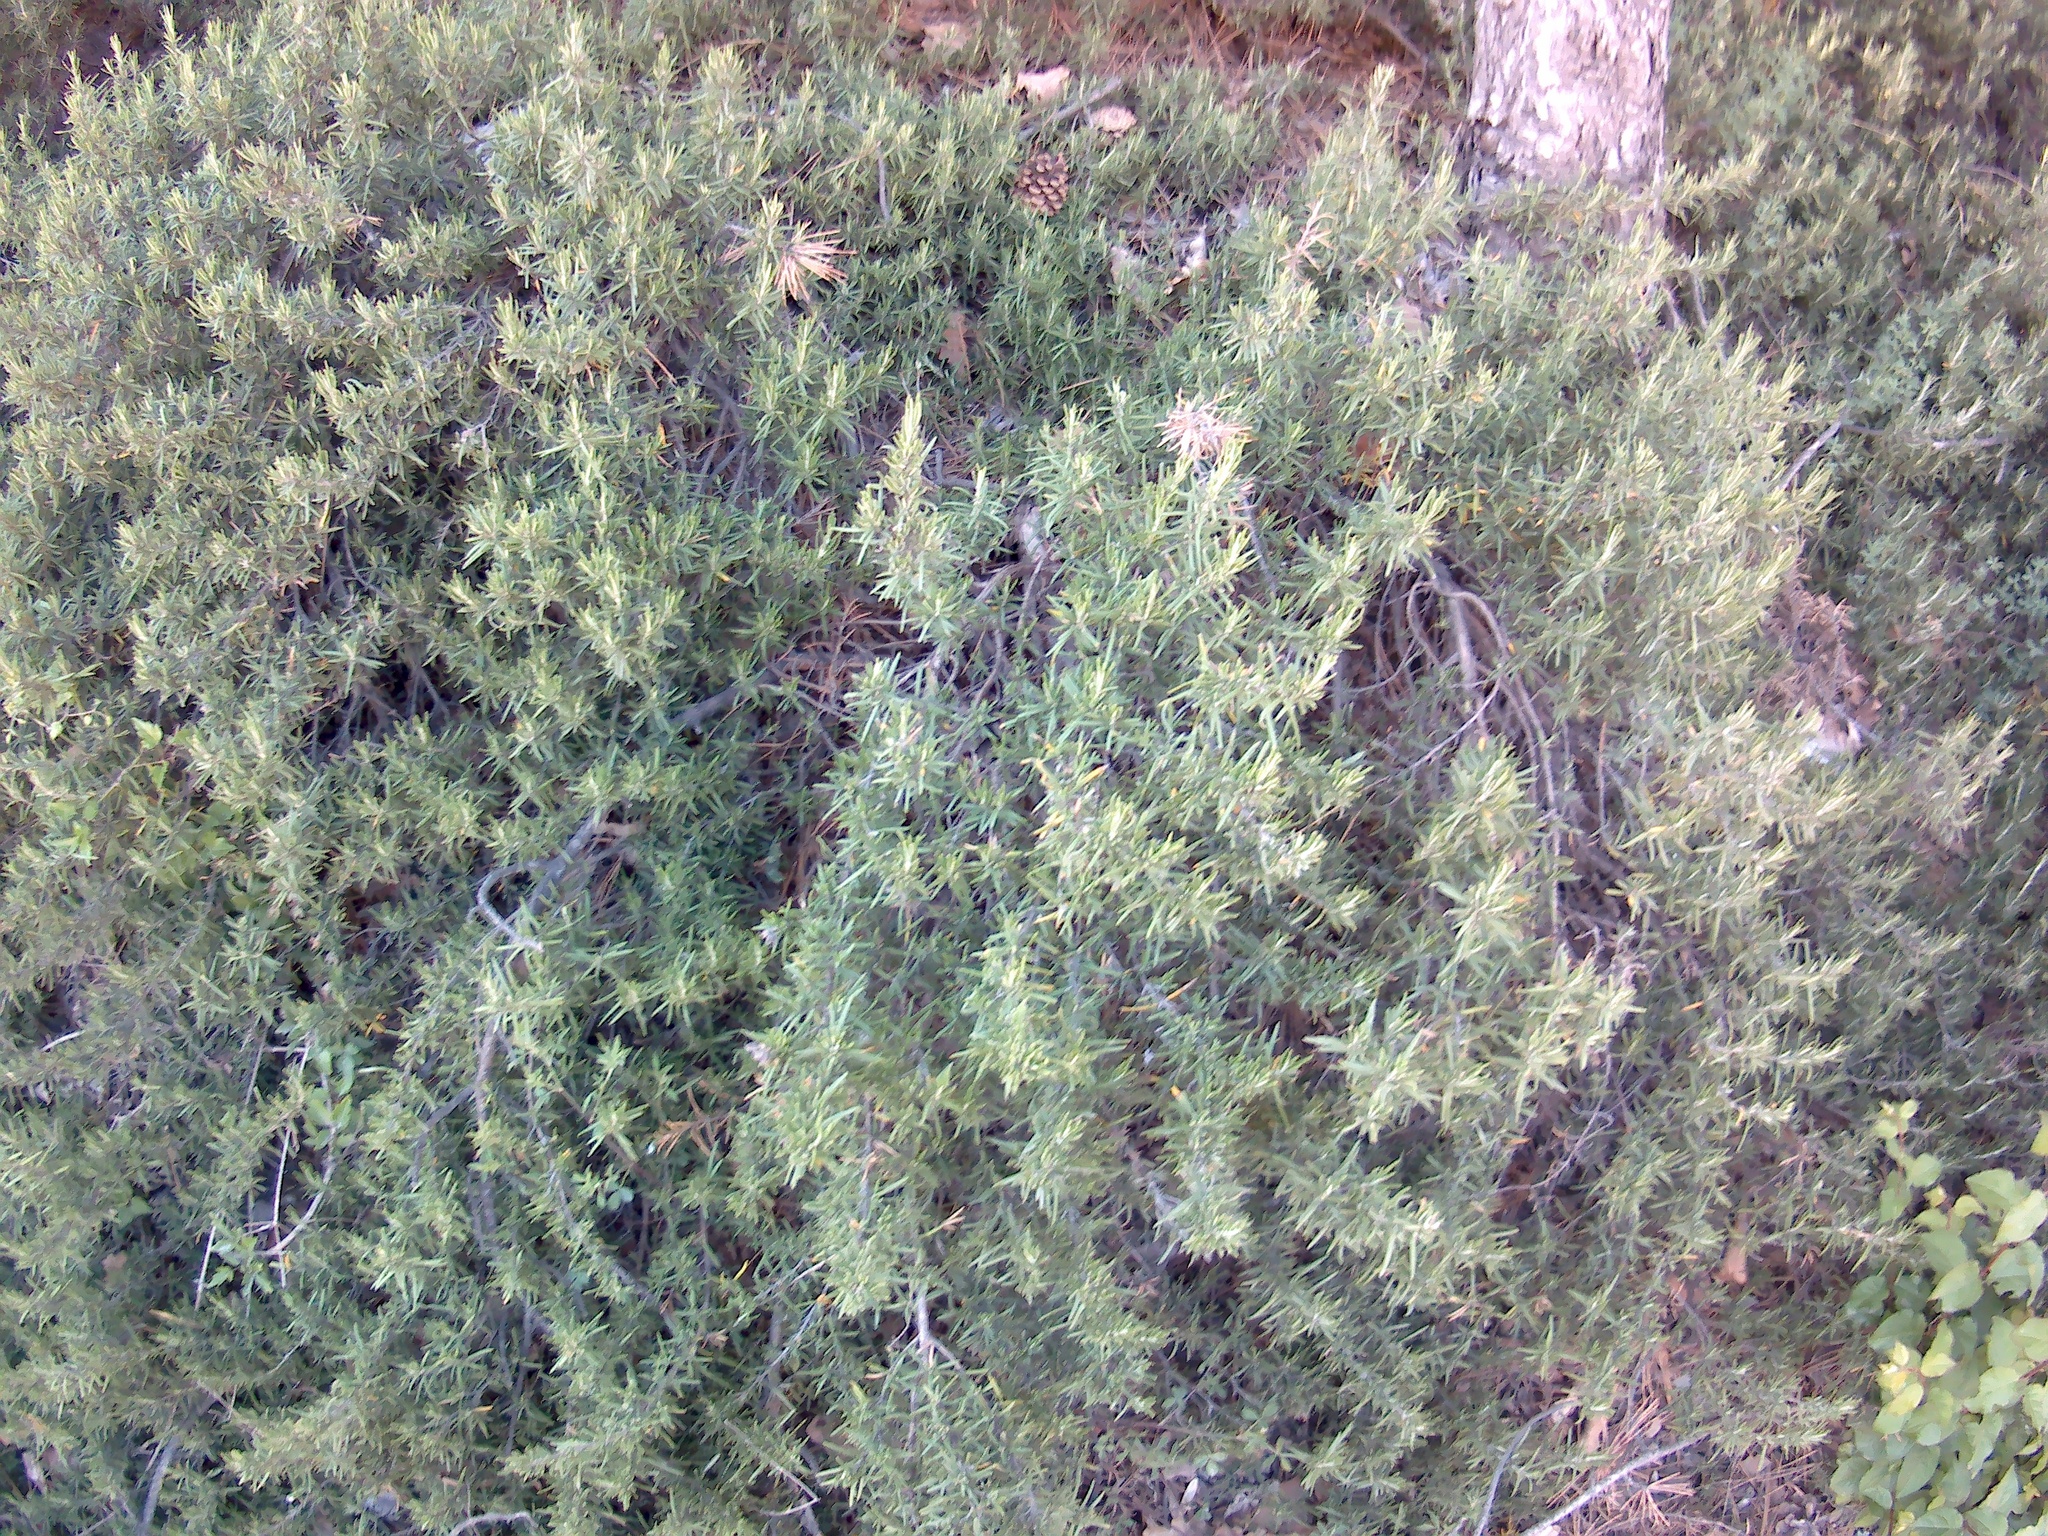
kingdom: Plantae
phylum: Tracheophyta
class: Magnoliopsida
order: Lamiales
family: Lamiaceae
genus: Salvia
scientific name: Salvia rosmarinus
